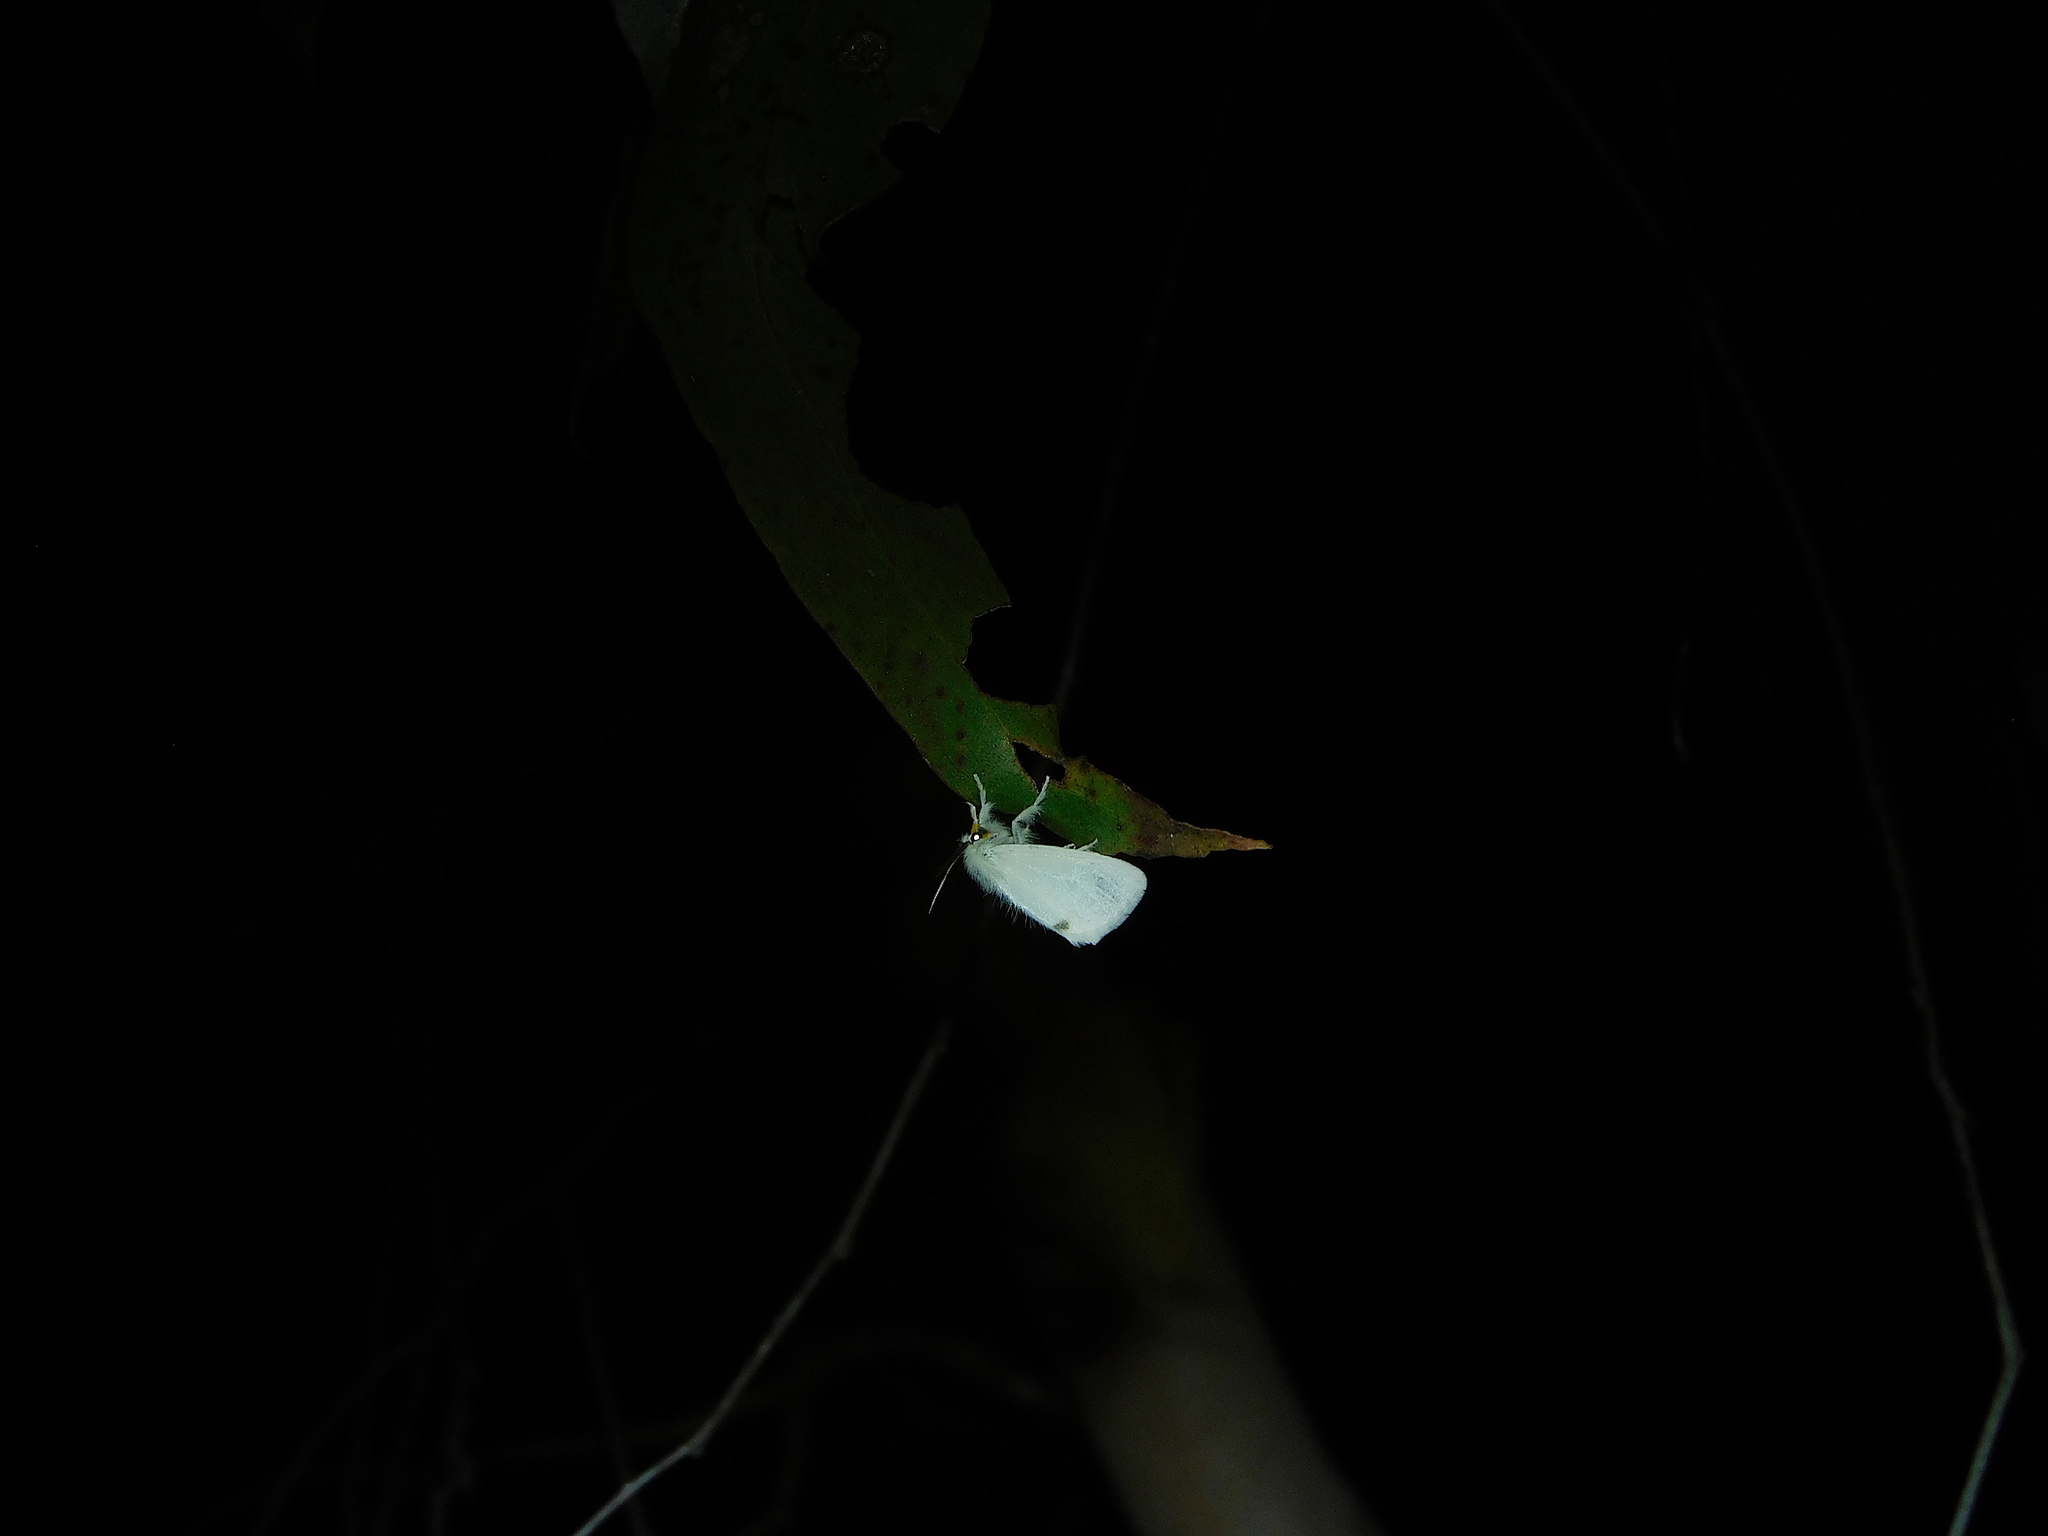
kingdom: Animalia
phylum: Arthropoda
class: Insecta
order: Lepidoptera
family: Erebidae
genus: Acyphas
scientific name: Acyphas semiochrea
